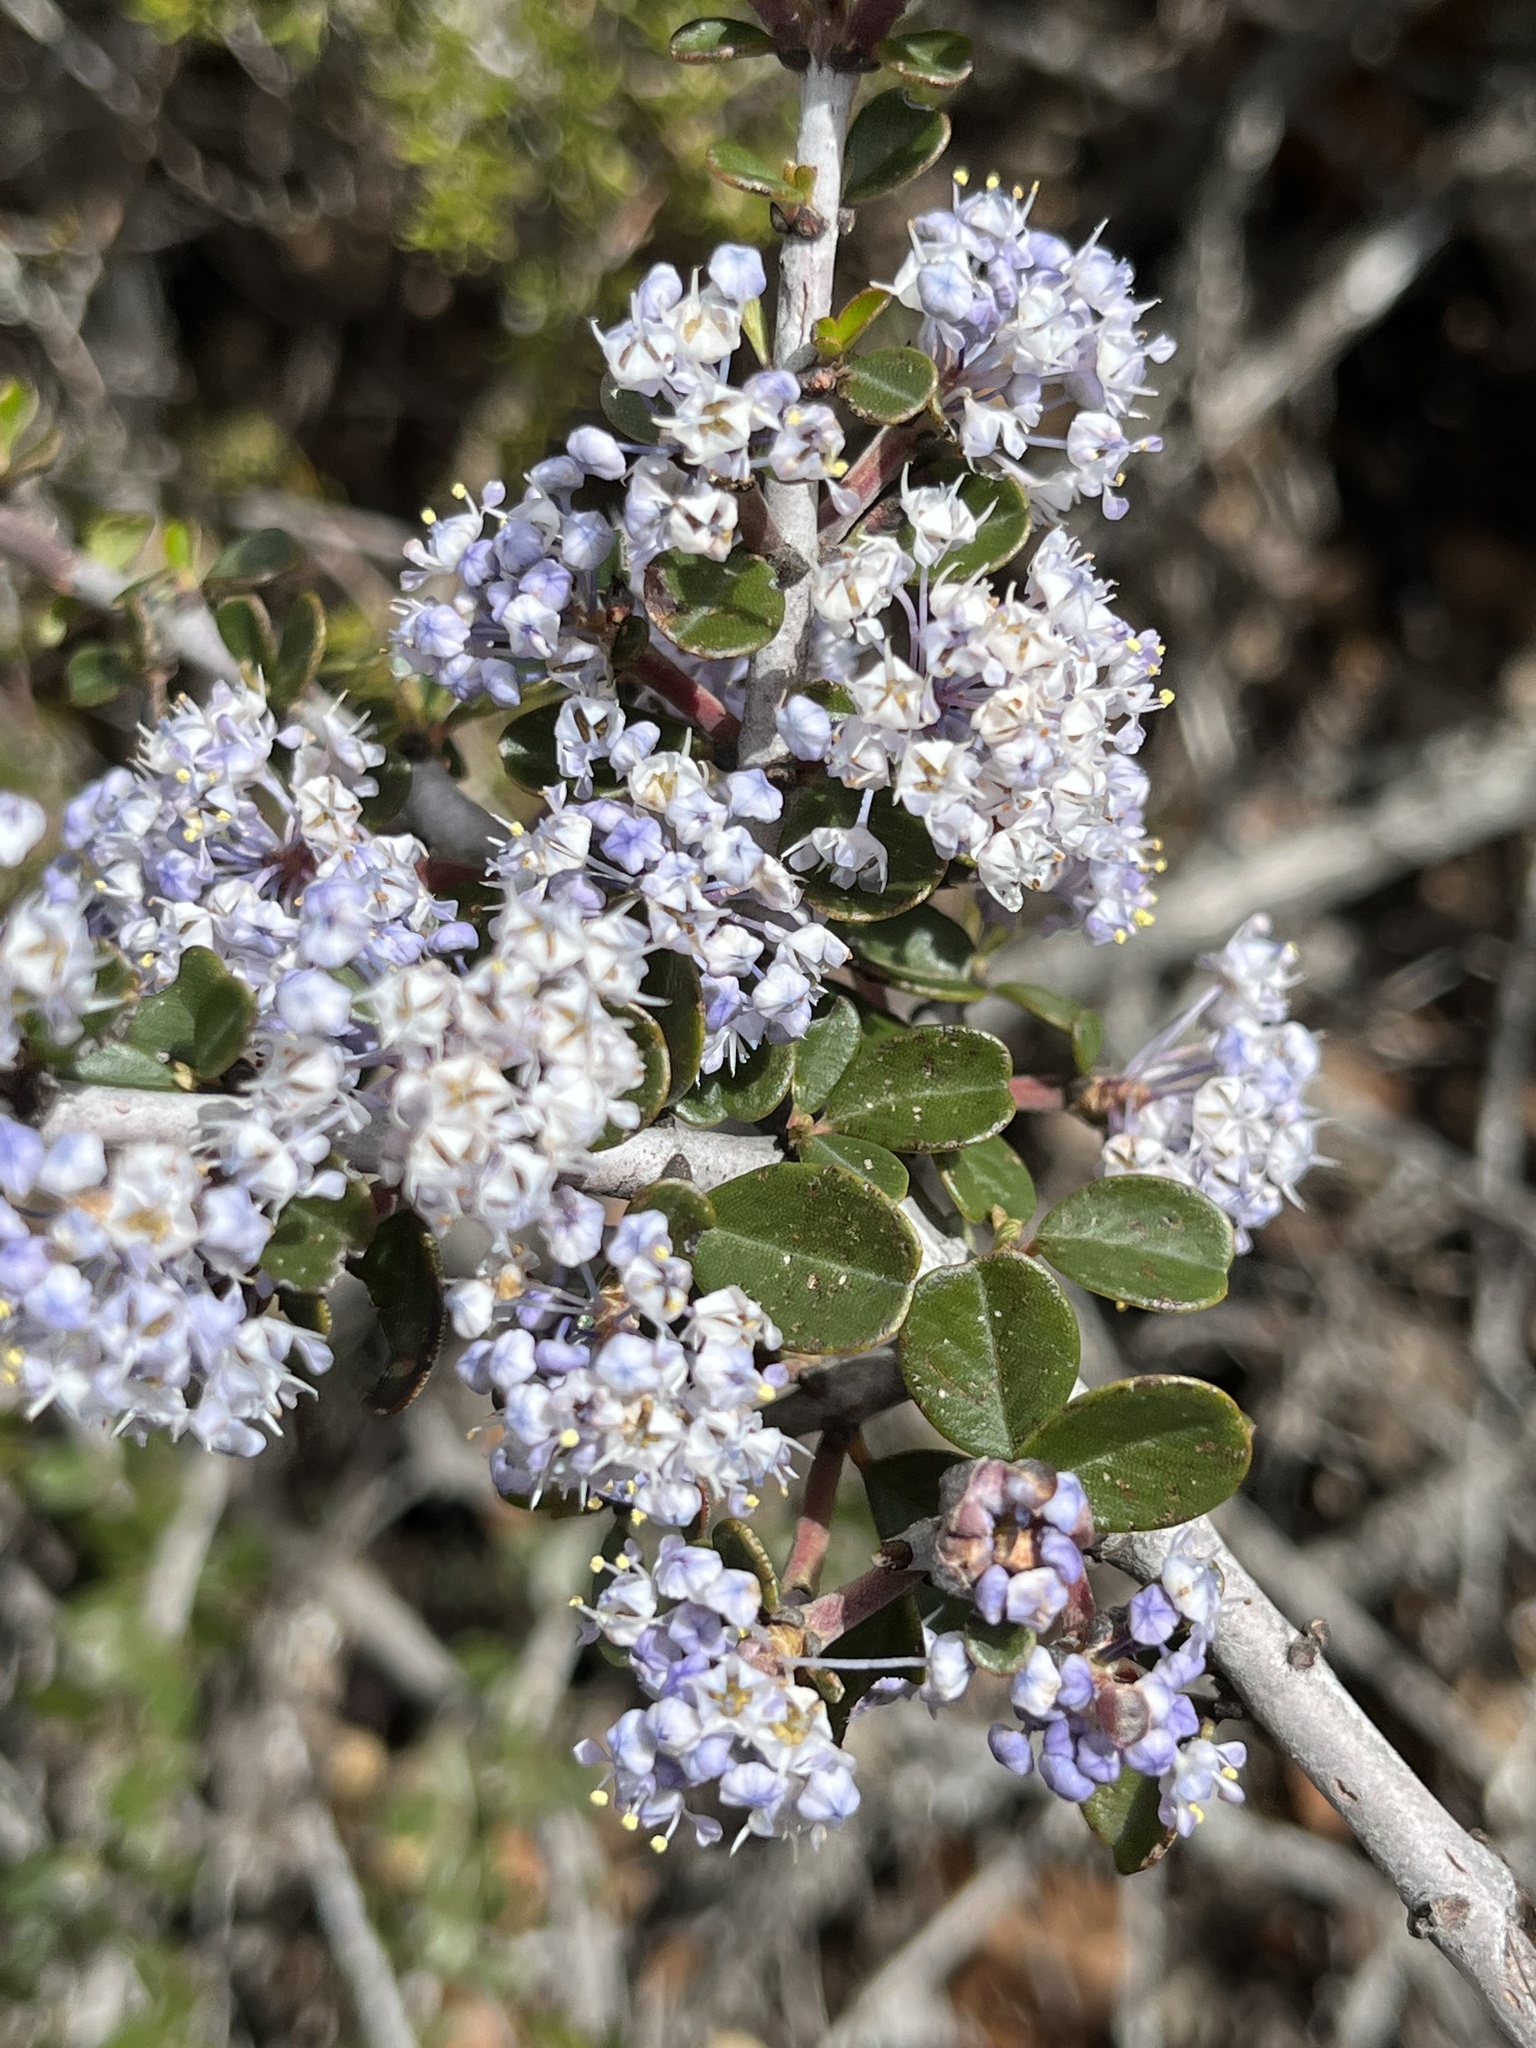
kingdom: Plantae
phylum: Tracheophyta
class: Magnoliopsida
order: Rosales
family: Rhamnaceae
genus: Ceanothus
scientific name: Ceanothus cuneatus
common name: Cuneate ceanothus
